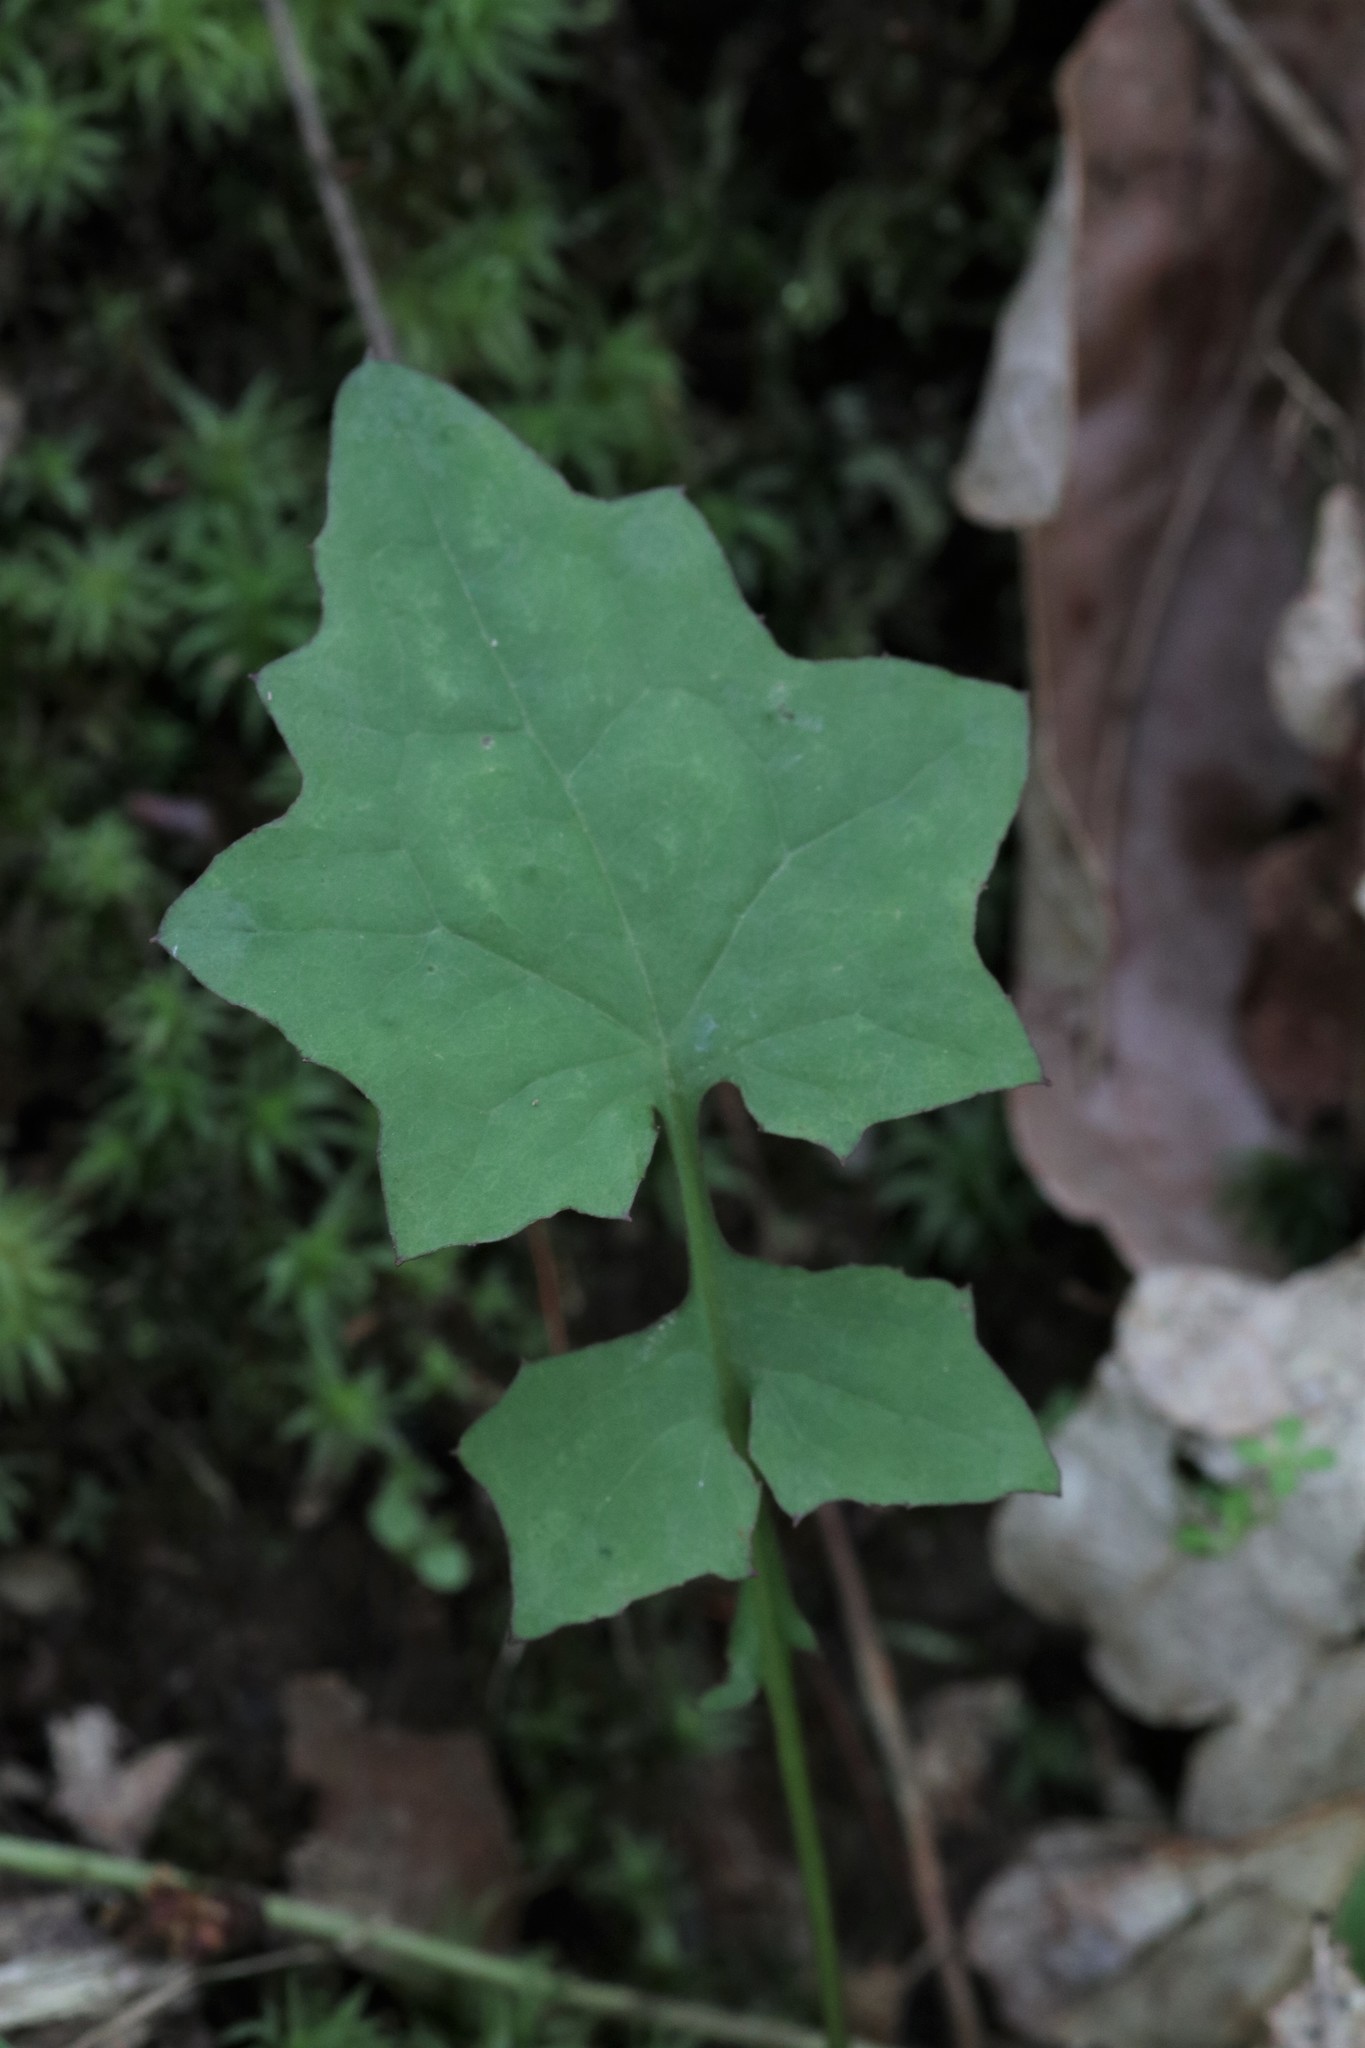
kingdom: Plantae
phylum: Tracheophyta
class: Magnoliopsida
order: Asterales
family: Asteraceae
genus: Mycelis
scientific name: Mycelis muralis
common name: Wall lettuce
